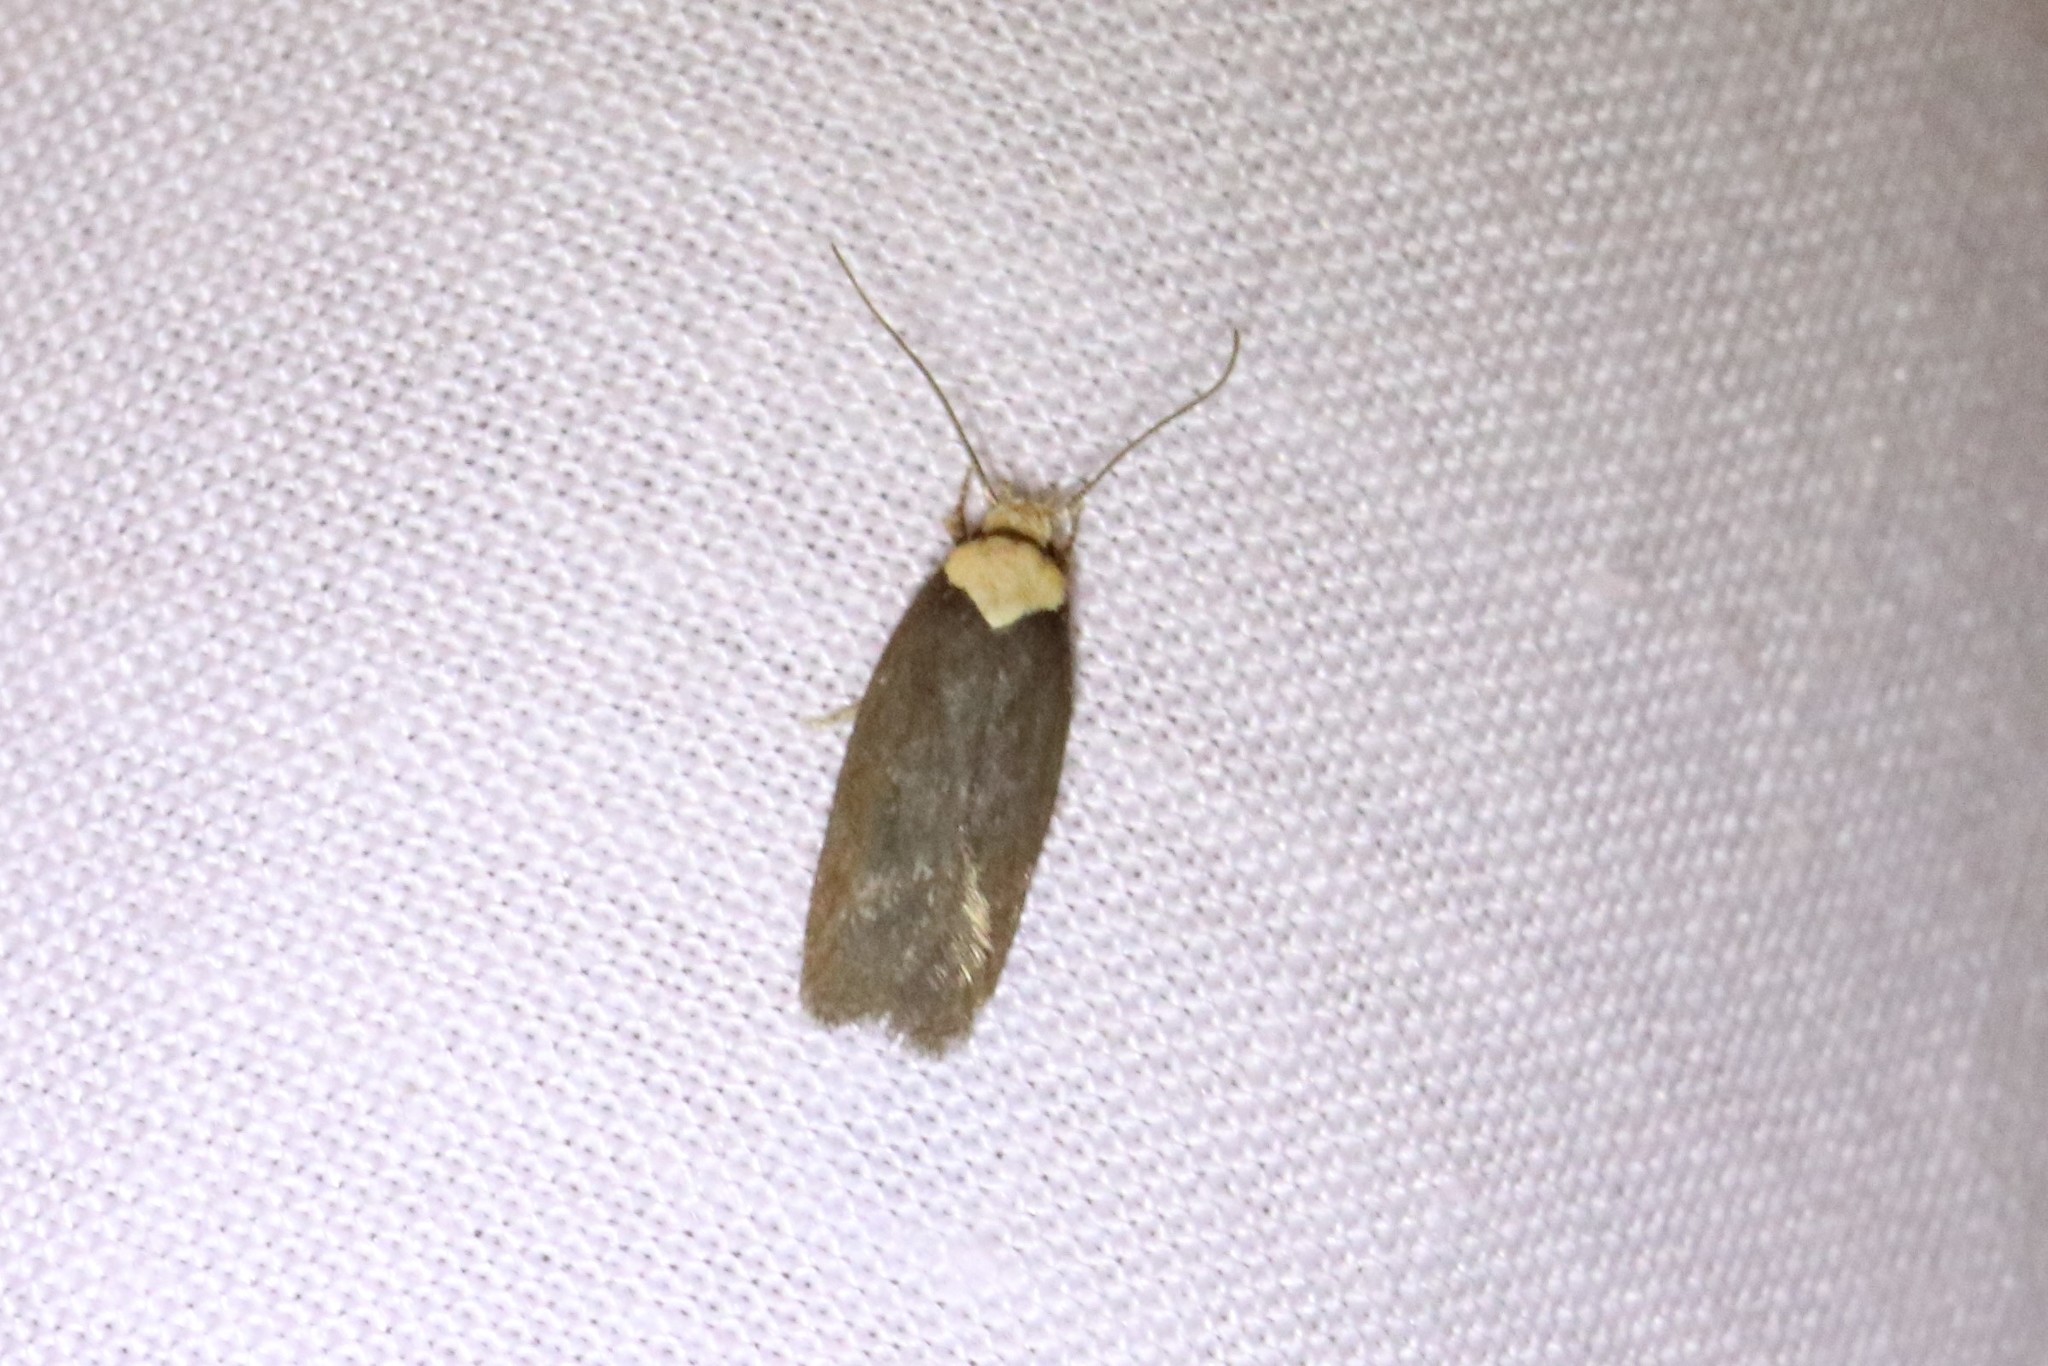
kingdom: Animalia
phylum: Arthropoda
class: Insecta
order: Lepidoptera
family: Depressariidae
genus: Depressaria
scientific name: Depressaria depressana
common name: Lost flat-body
